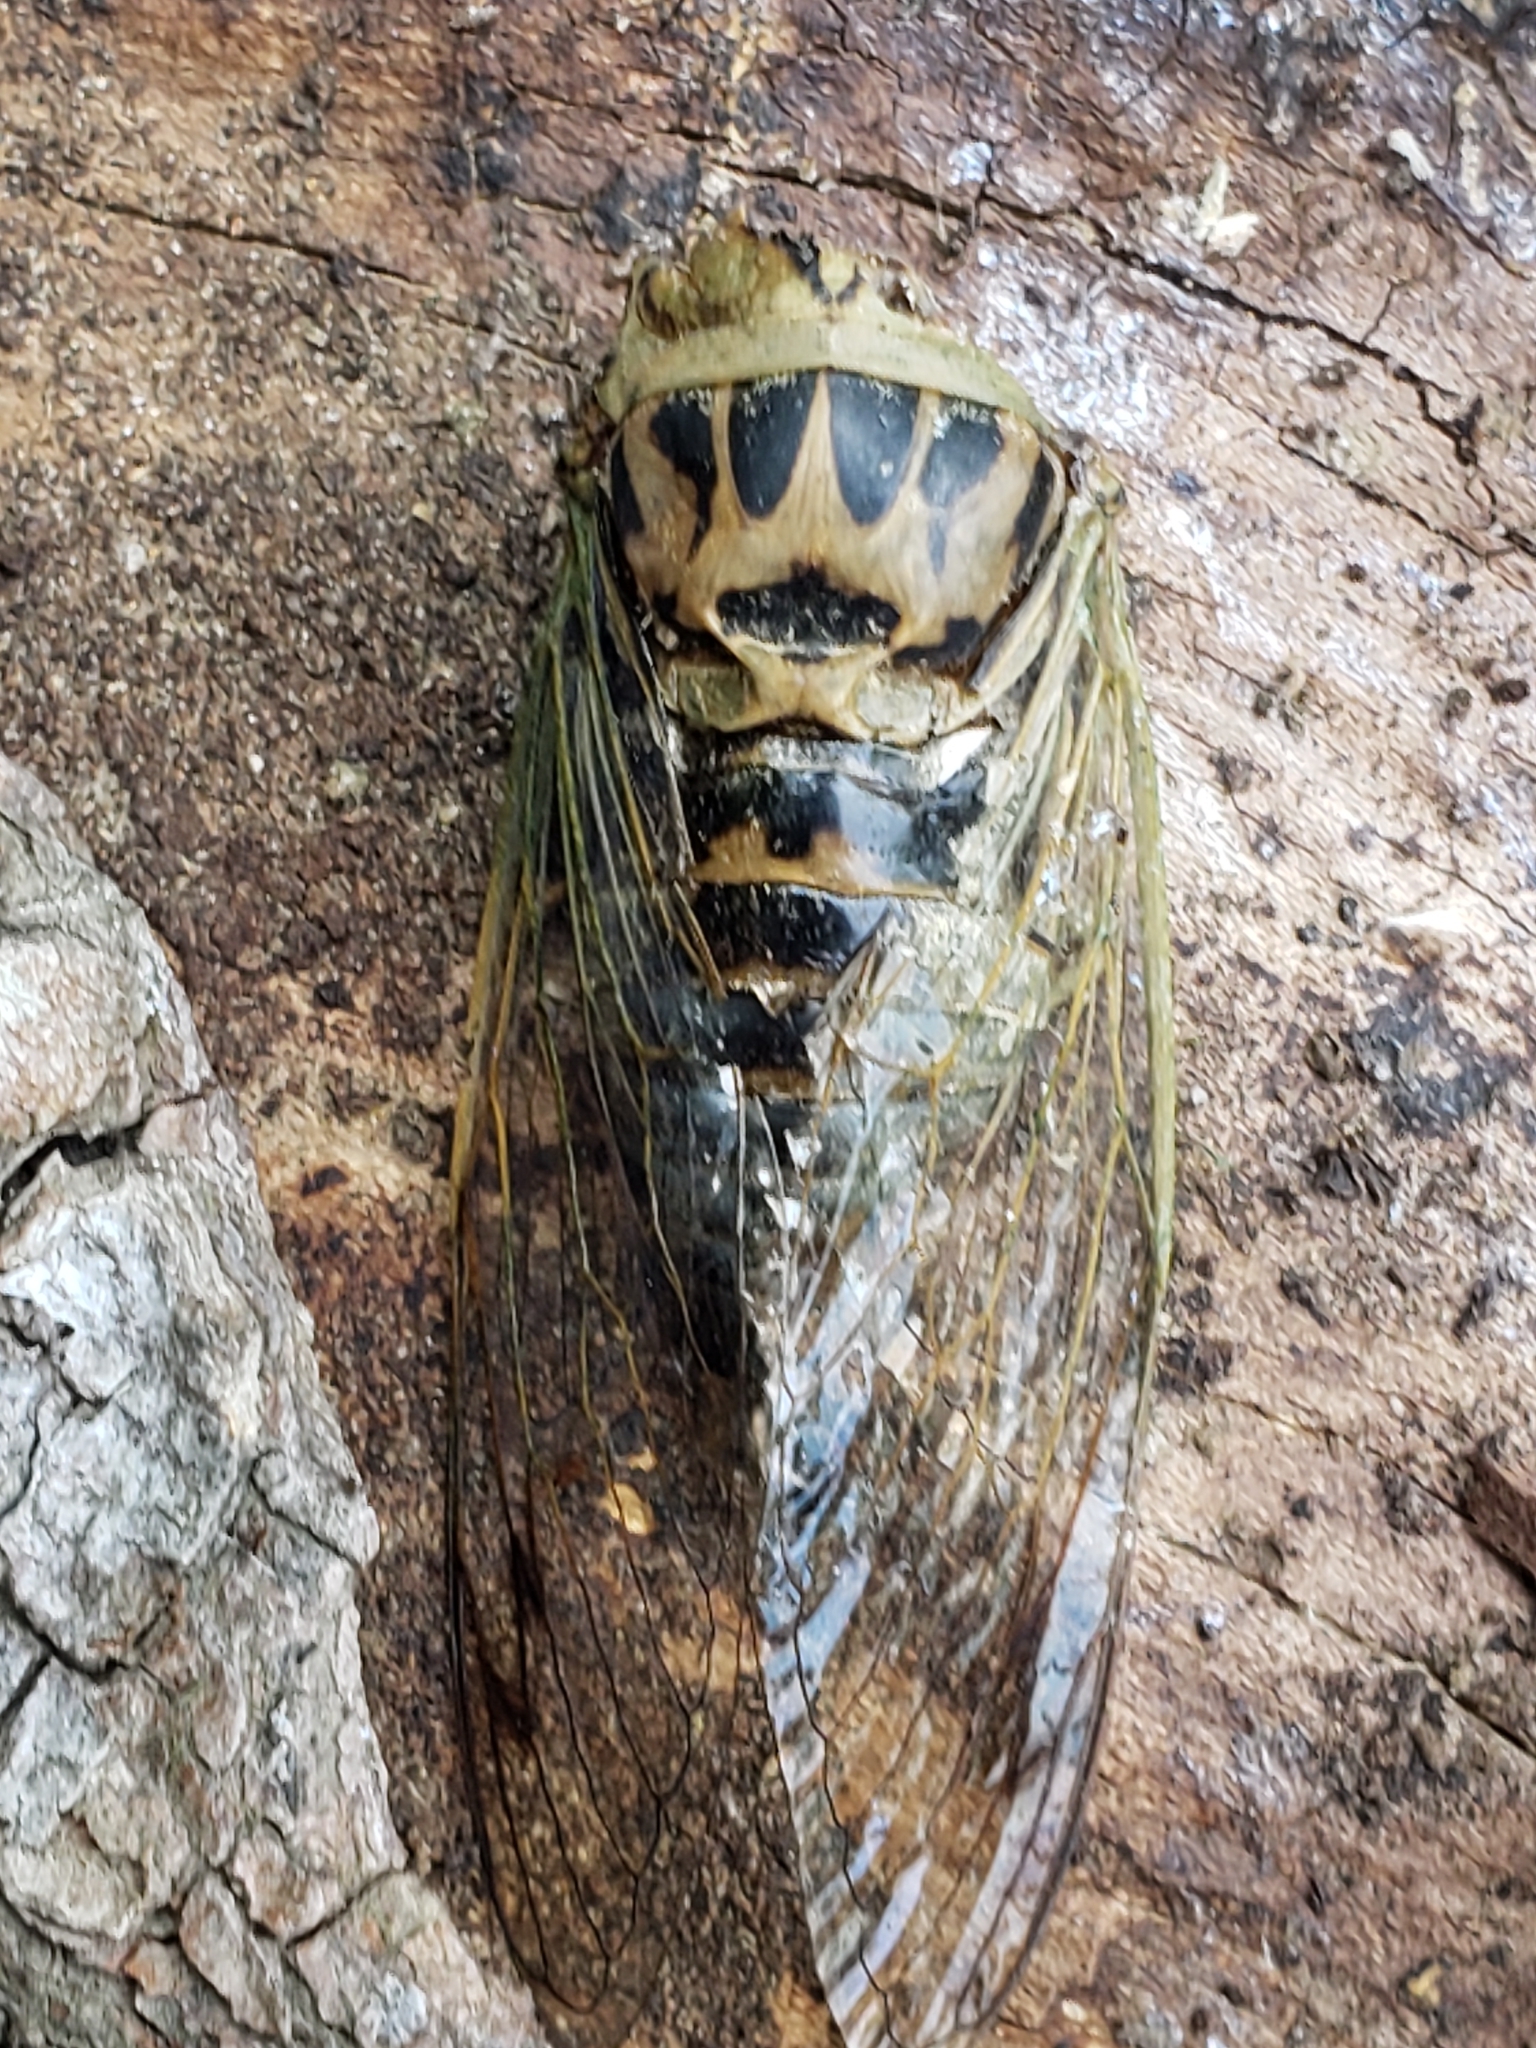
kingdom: Animalia
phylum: Arthropoda
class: Insecta
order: Hemiptera
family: Cicadidae
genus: Neotibicen
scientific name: Neotibicen winnemanna
